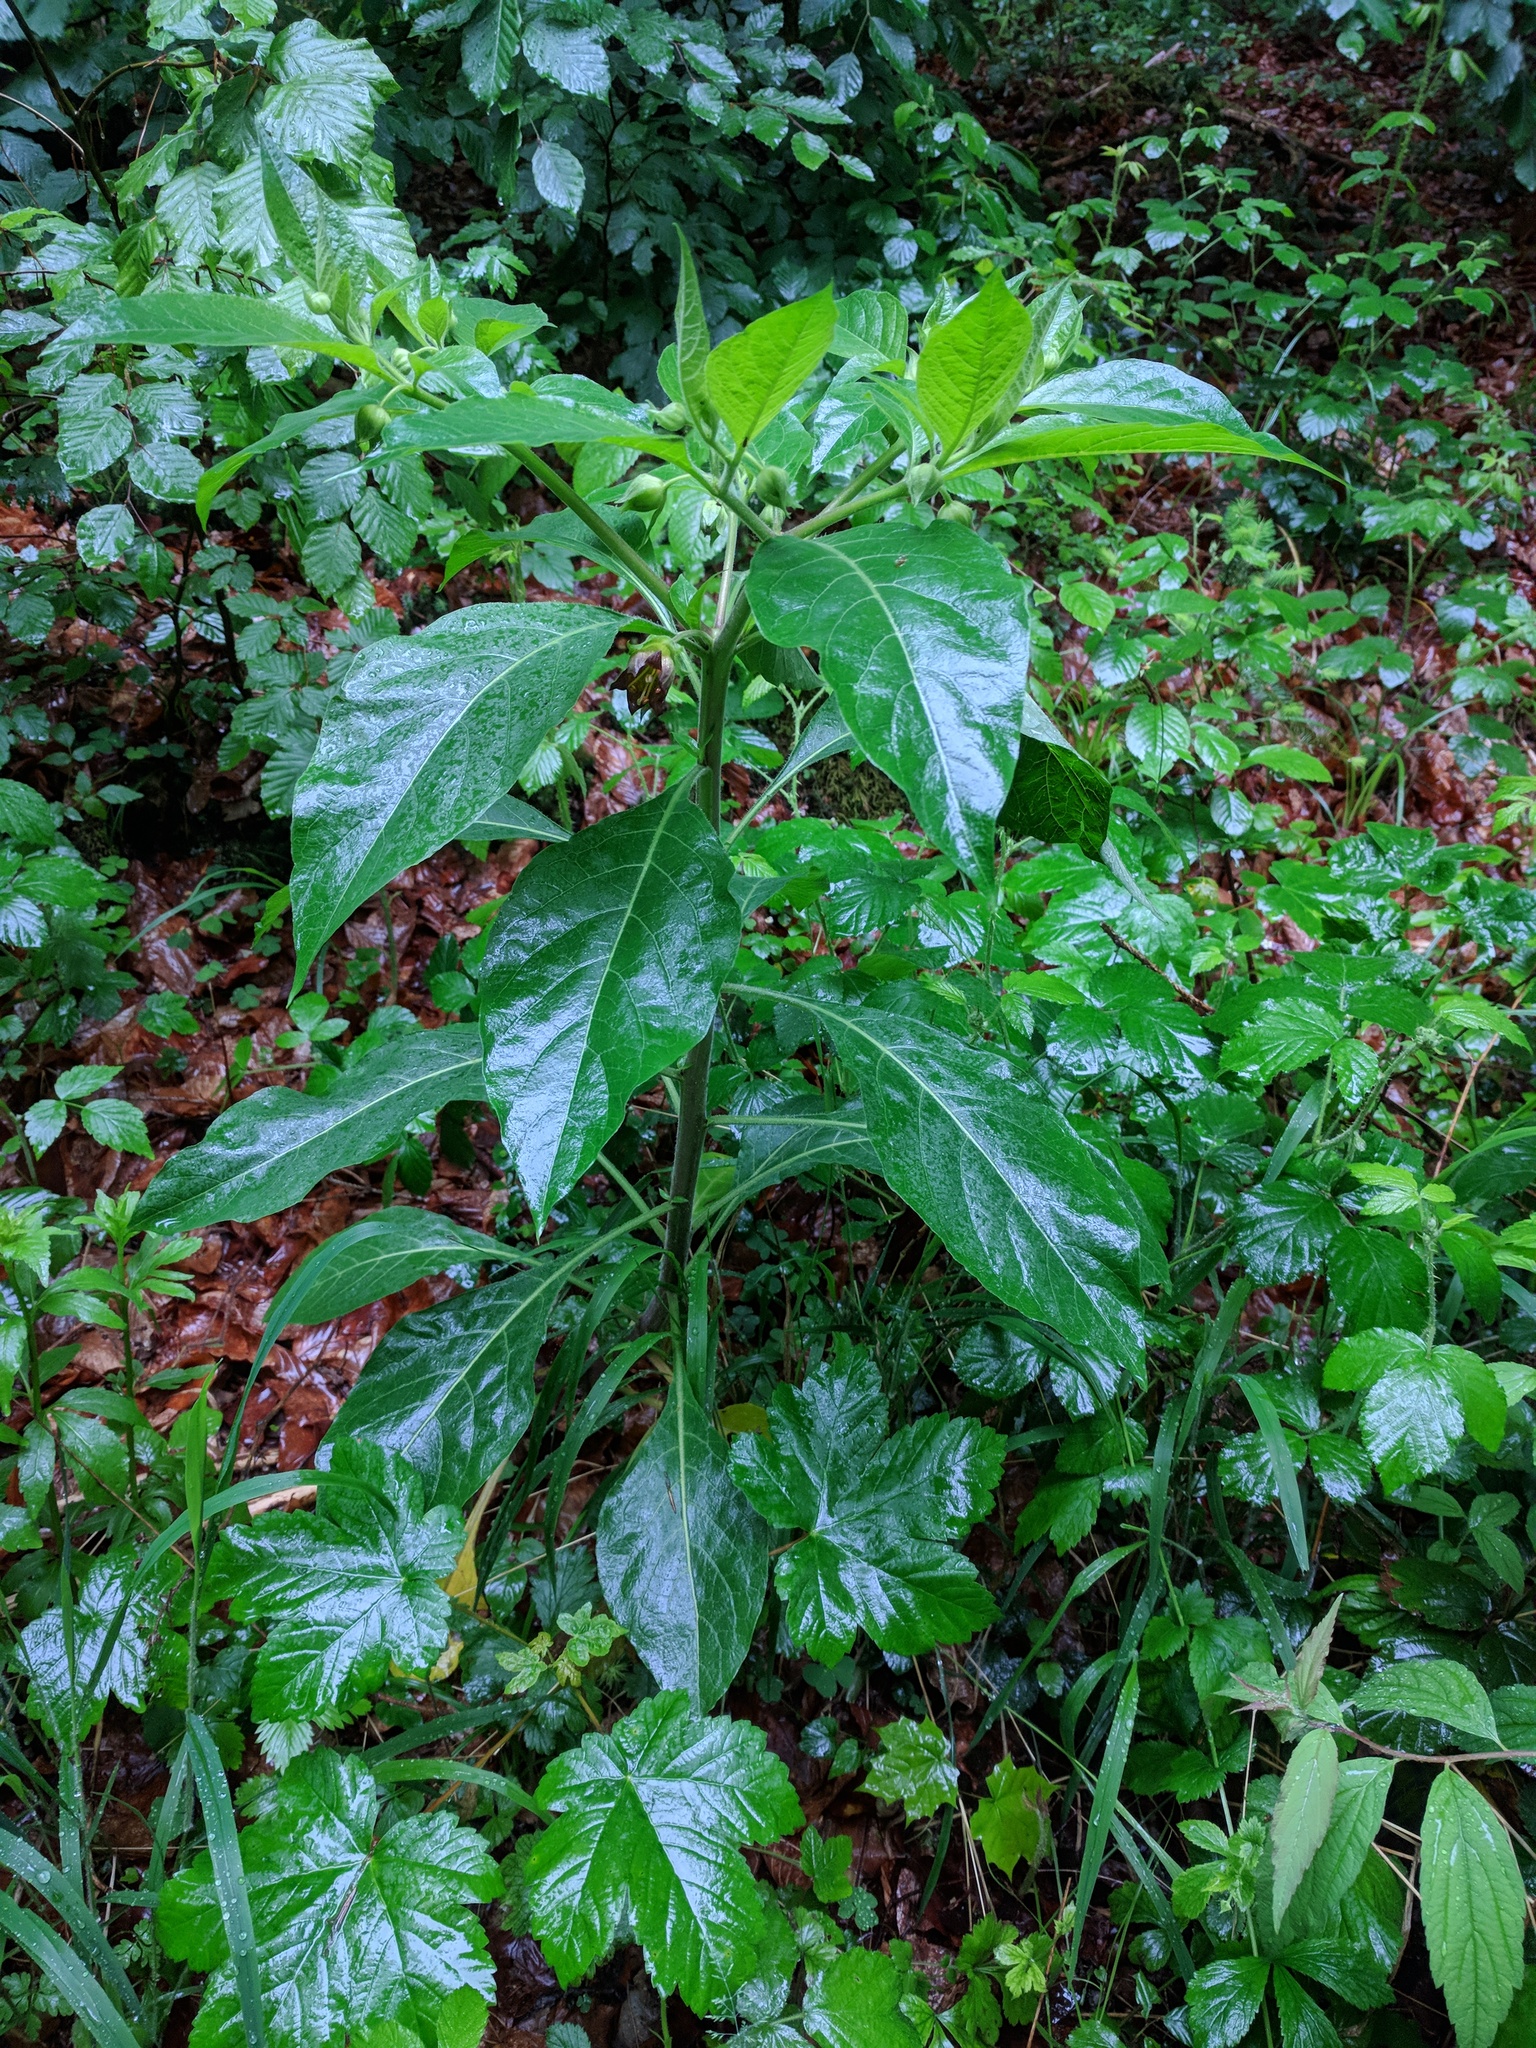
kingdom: Plantae
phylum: Tracheophyta
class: Magnoliopsida
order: Solanales
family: Solanaceae
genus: Atropa
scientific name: Atropa belladonna
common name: Deadly nightshade
